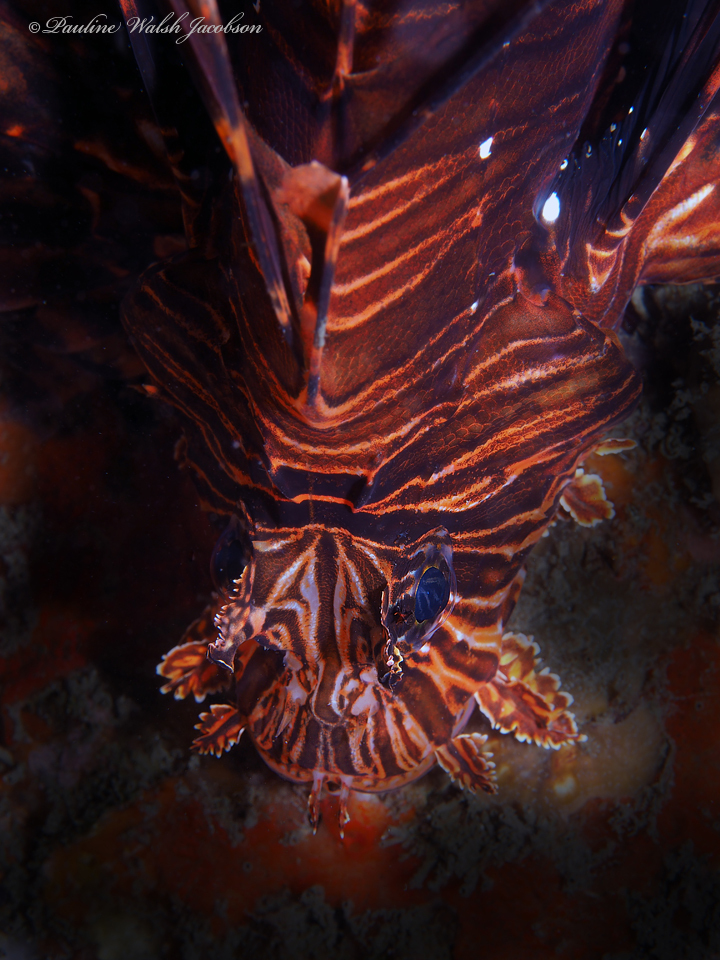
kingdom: Animalia
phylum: Chordata
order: Scorpaeniformes
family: Scorpaenidae
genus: Pterois
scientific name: Pterois volitans
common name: Lionfish
